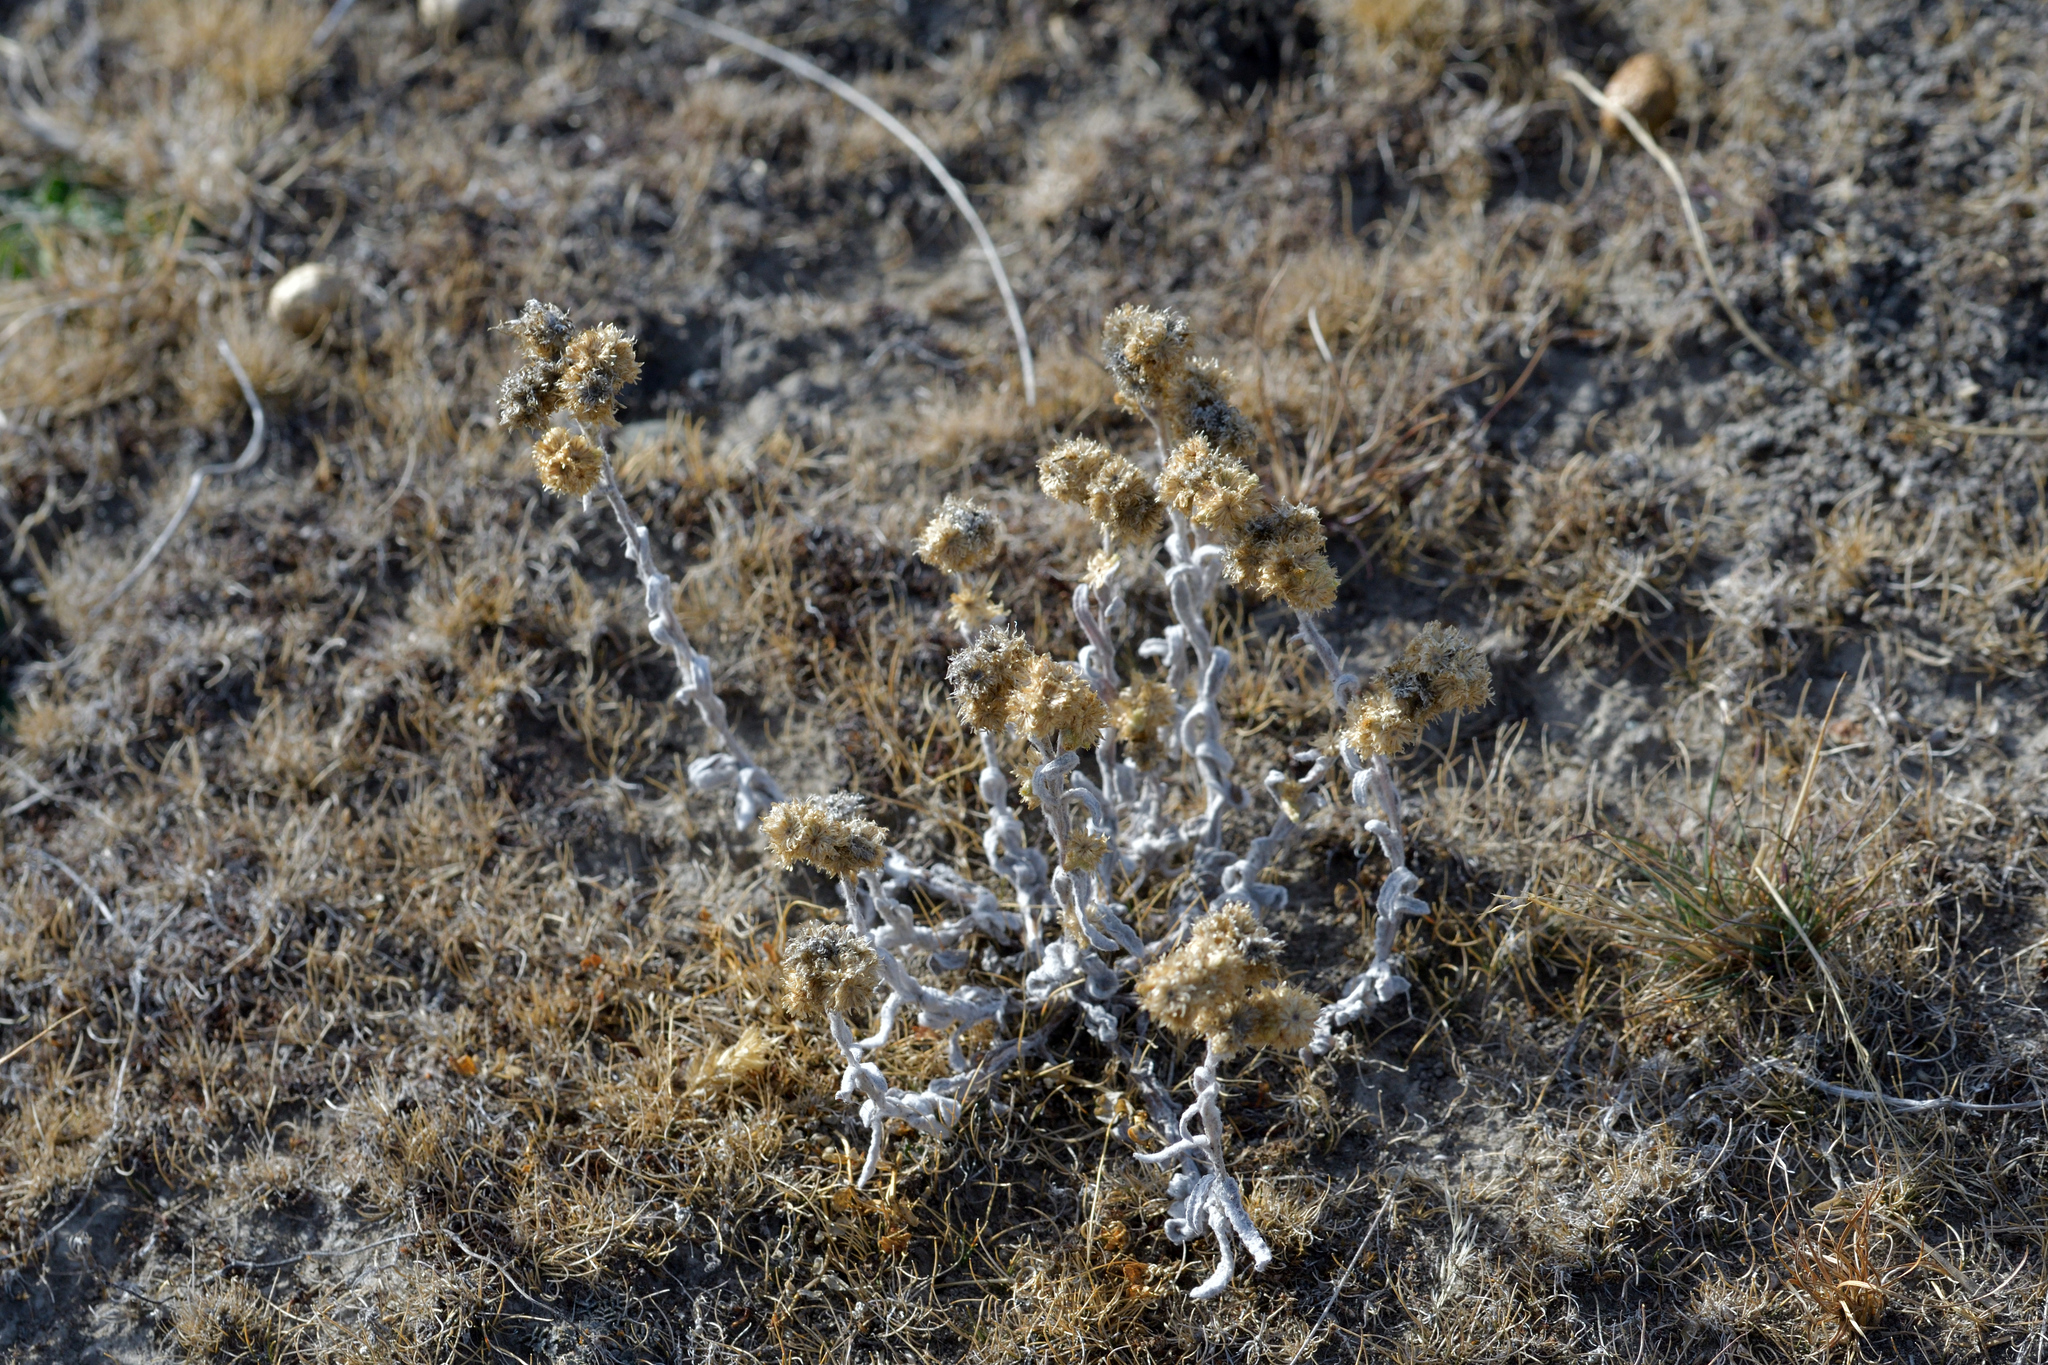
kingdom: Plantae
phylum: Tracheophyta
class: Magnoliopsida
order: Asterales
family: Asteraceae
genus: Helichrysum
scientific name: Helichrysum luteoalbum
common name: Daisy
